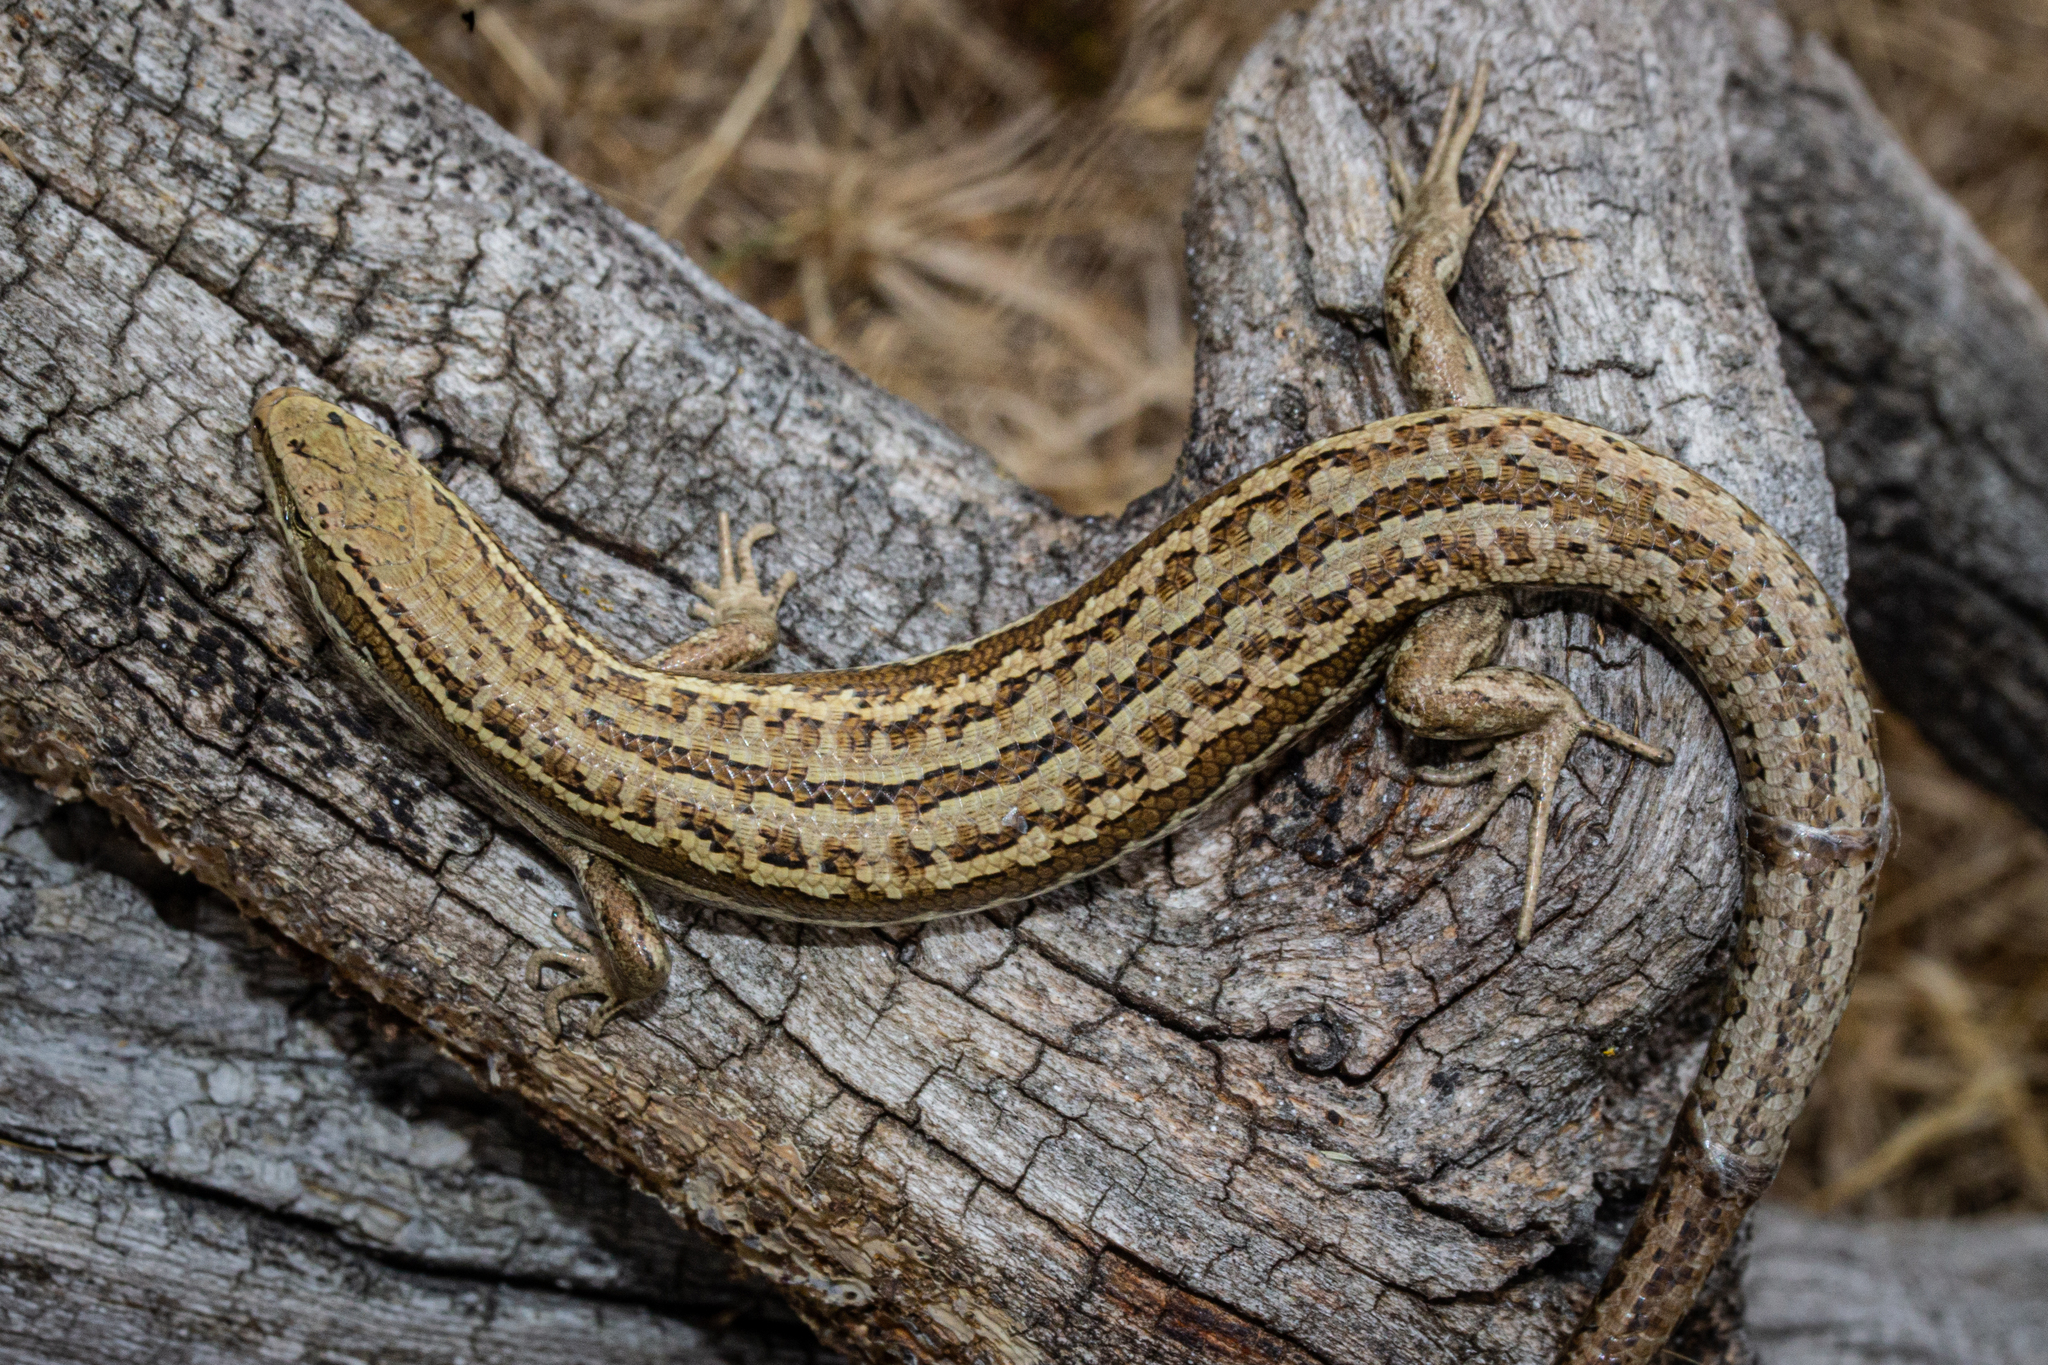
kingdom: Animalia
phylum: Chordata
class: Squamata
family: Scincidae
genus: Oligosoma
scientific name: Oligosoma maccanni
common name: Mccann’s skink
